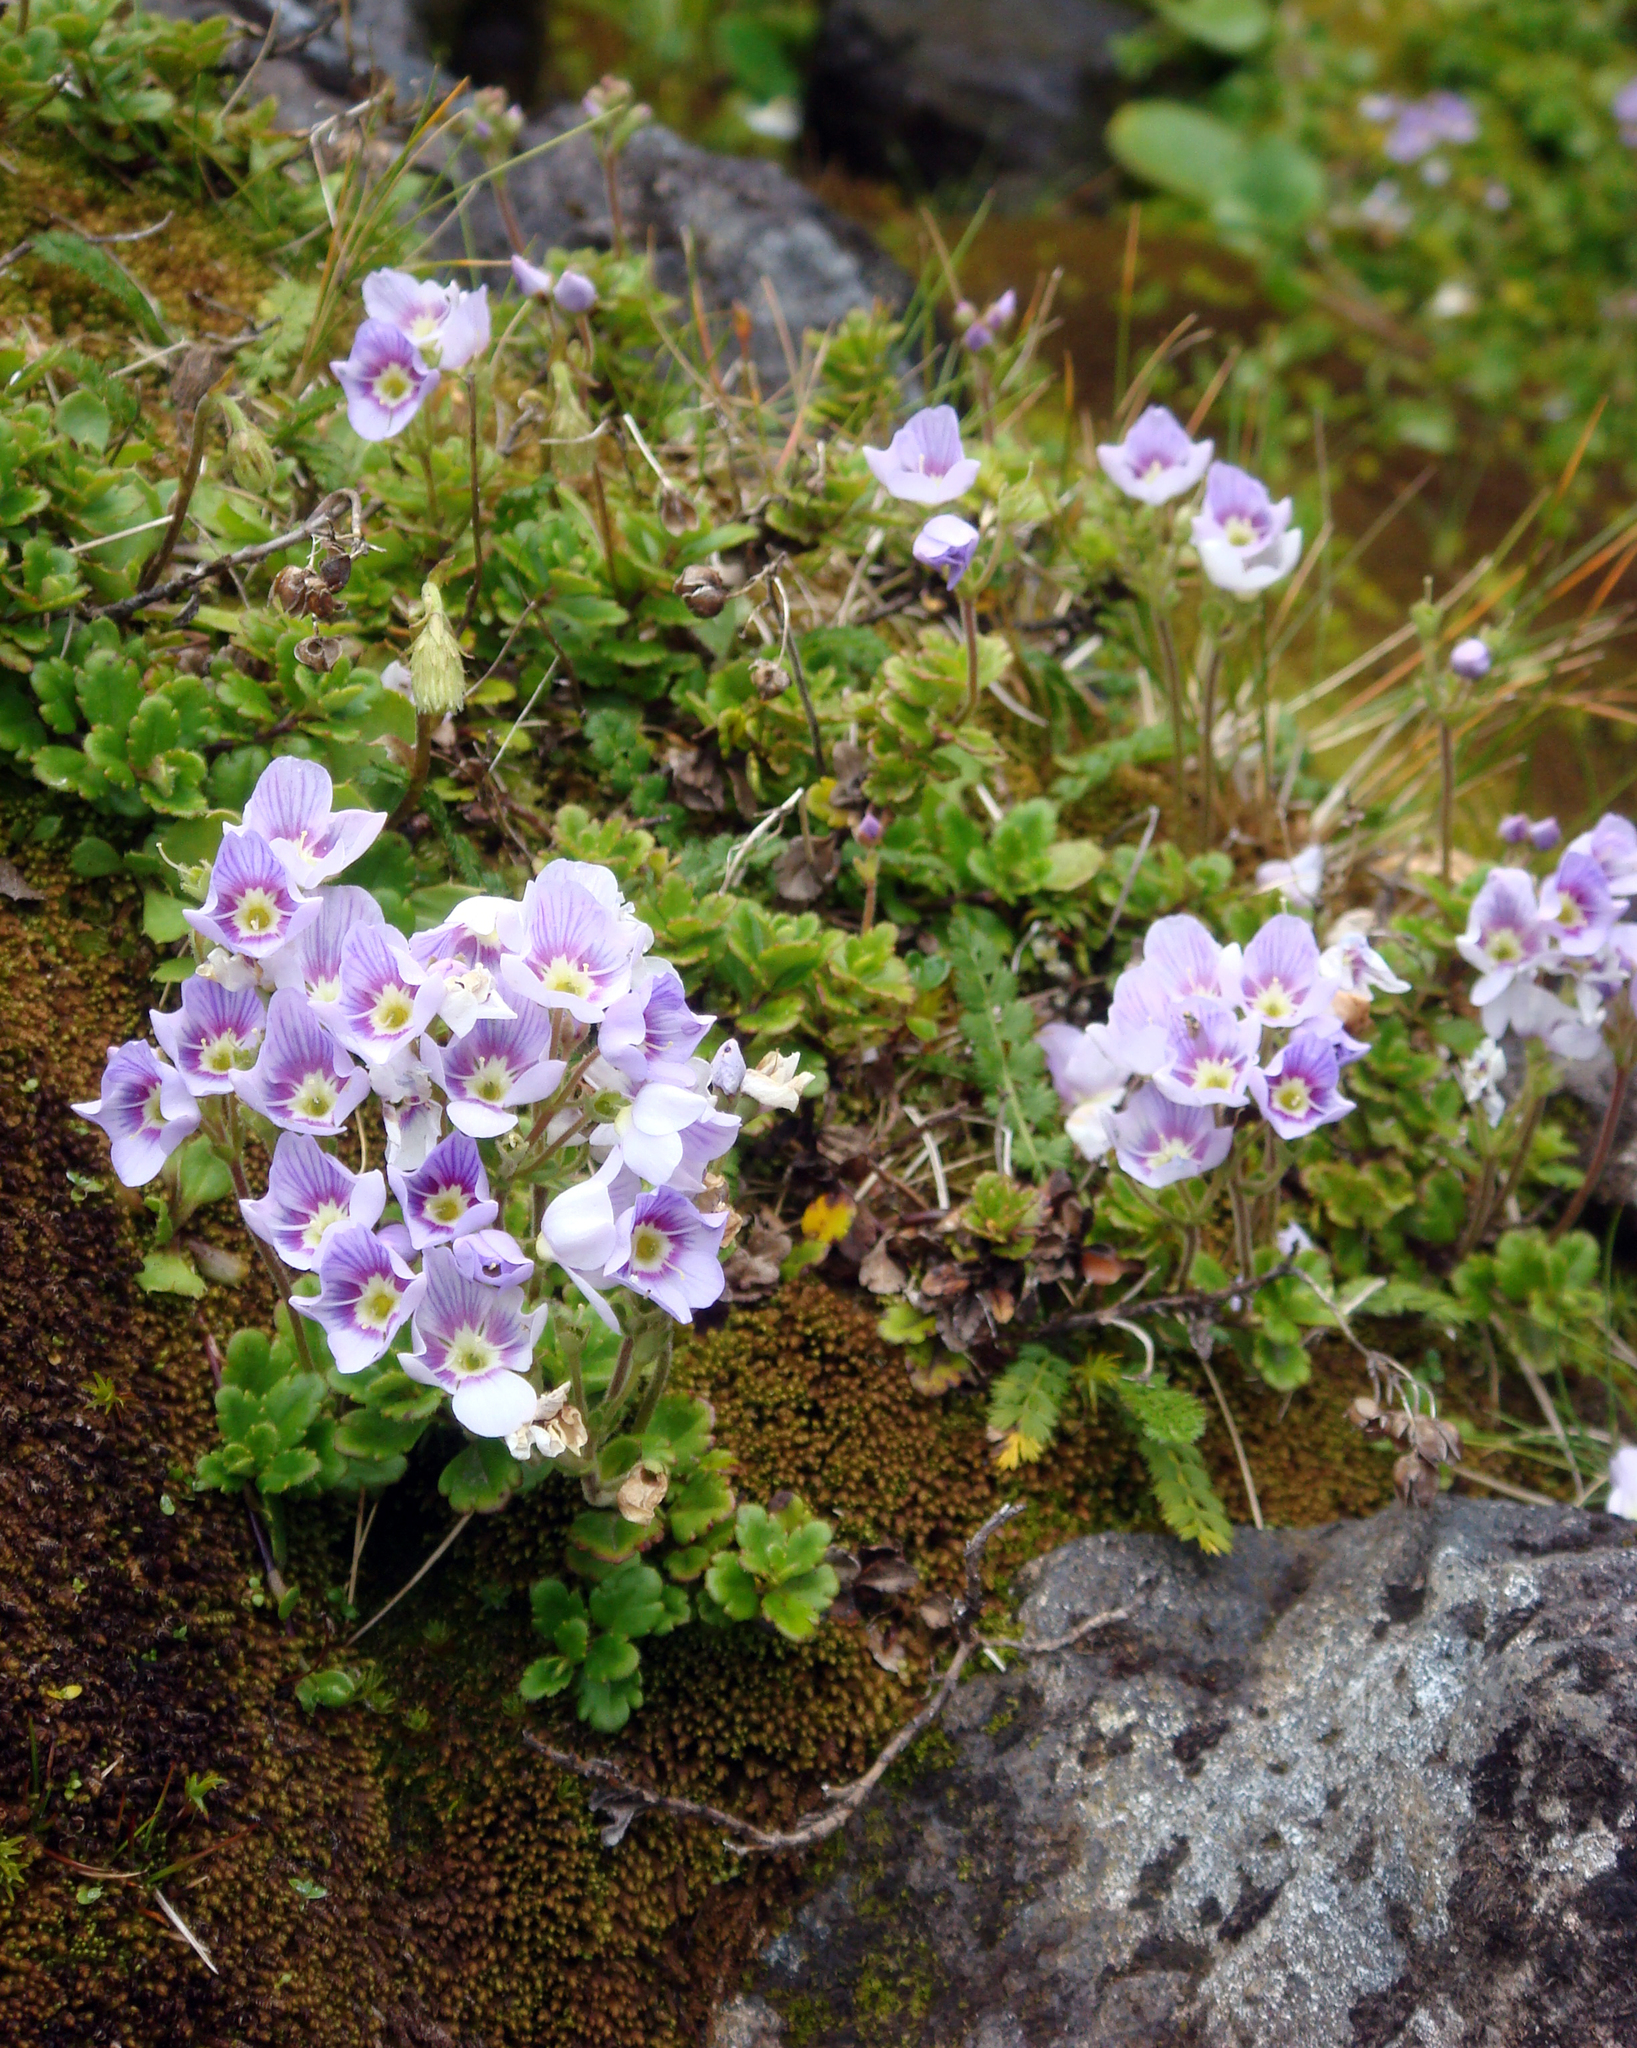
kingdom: Plantae
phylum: Tracheophyta
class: Magnoliopsida
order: Lamiales
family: Plantaginaceae
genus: Veronica
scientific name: Veronica hookeriana
